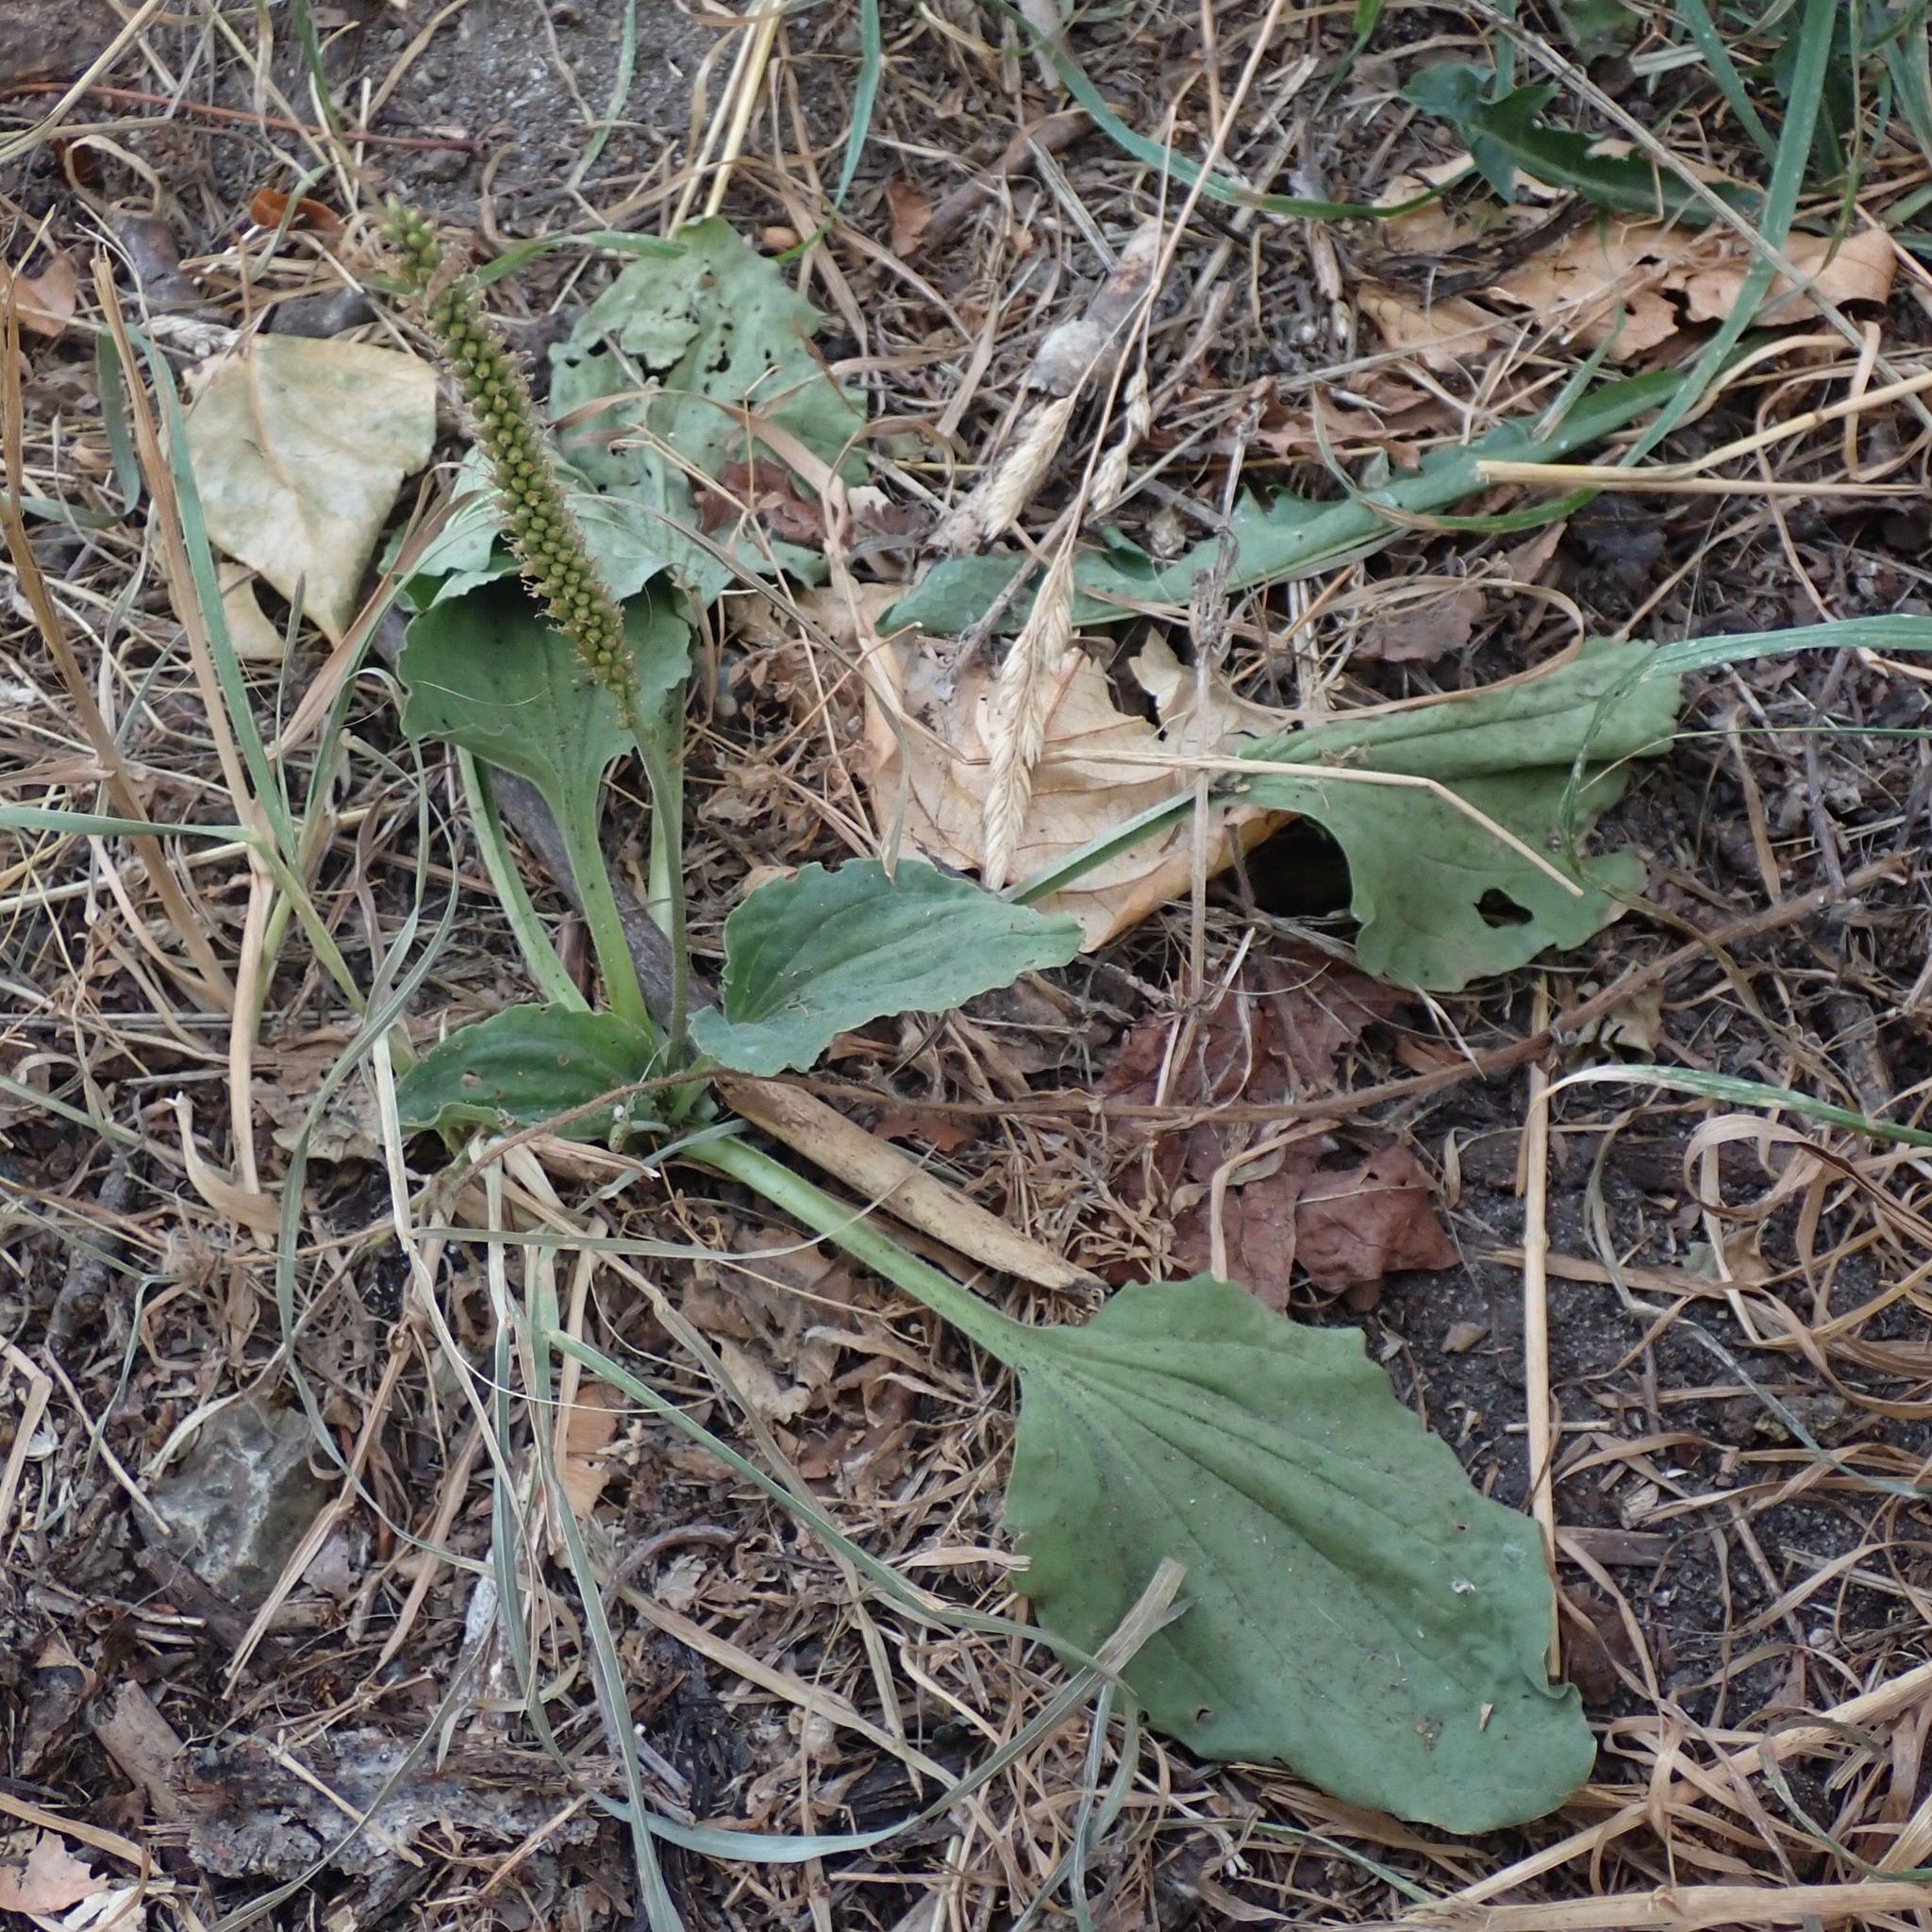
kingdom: Plantae
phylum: Tracheophyta
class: Magnoliopsida
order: Lamiales
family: Plantaginaceae
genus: Plantago
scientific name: Plantago major
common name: Common plantain
